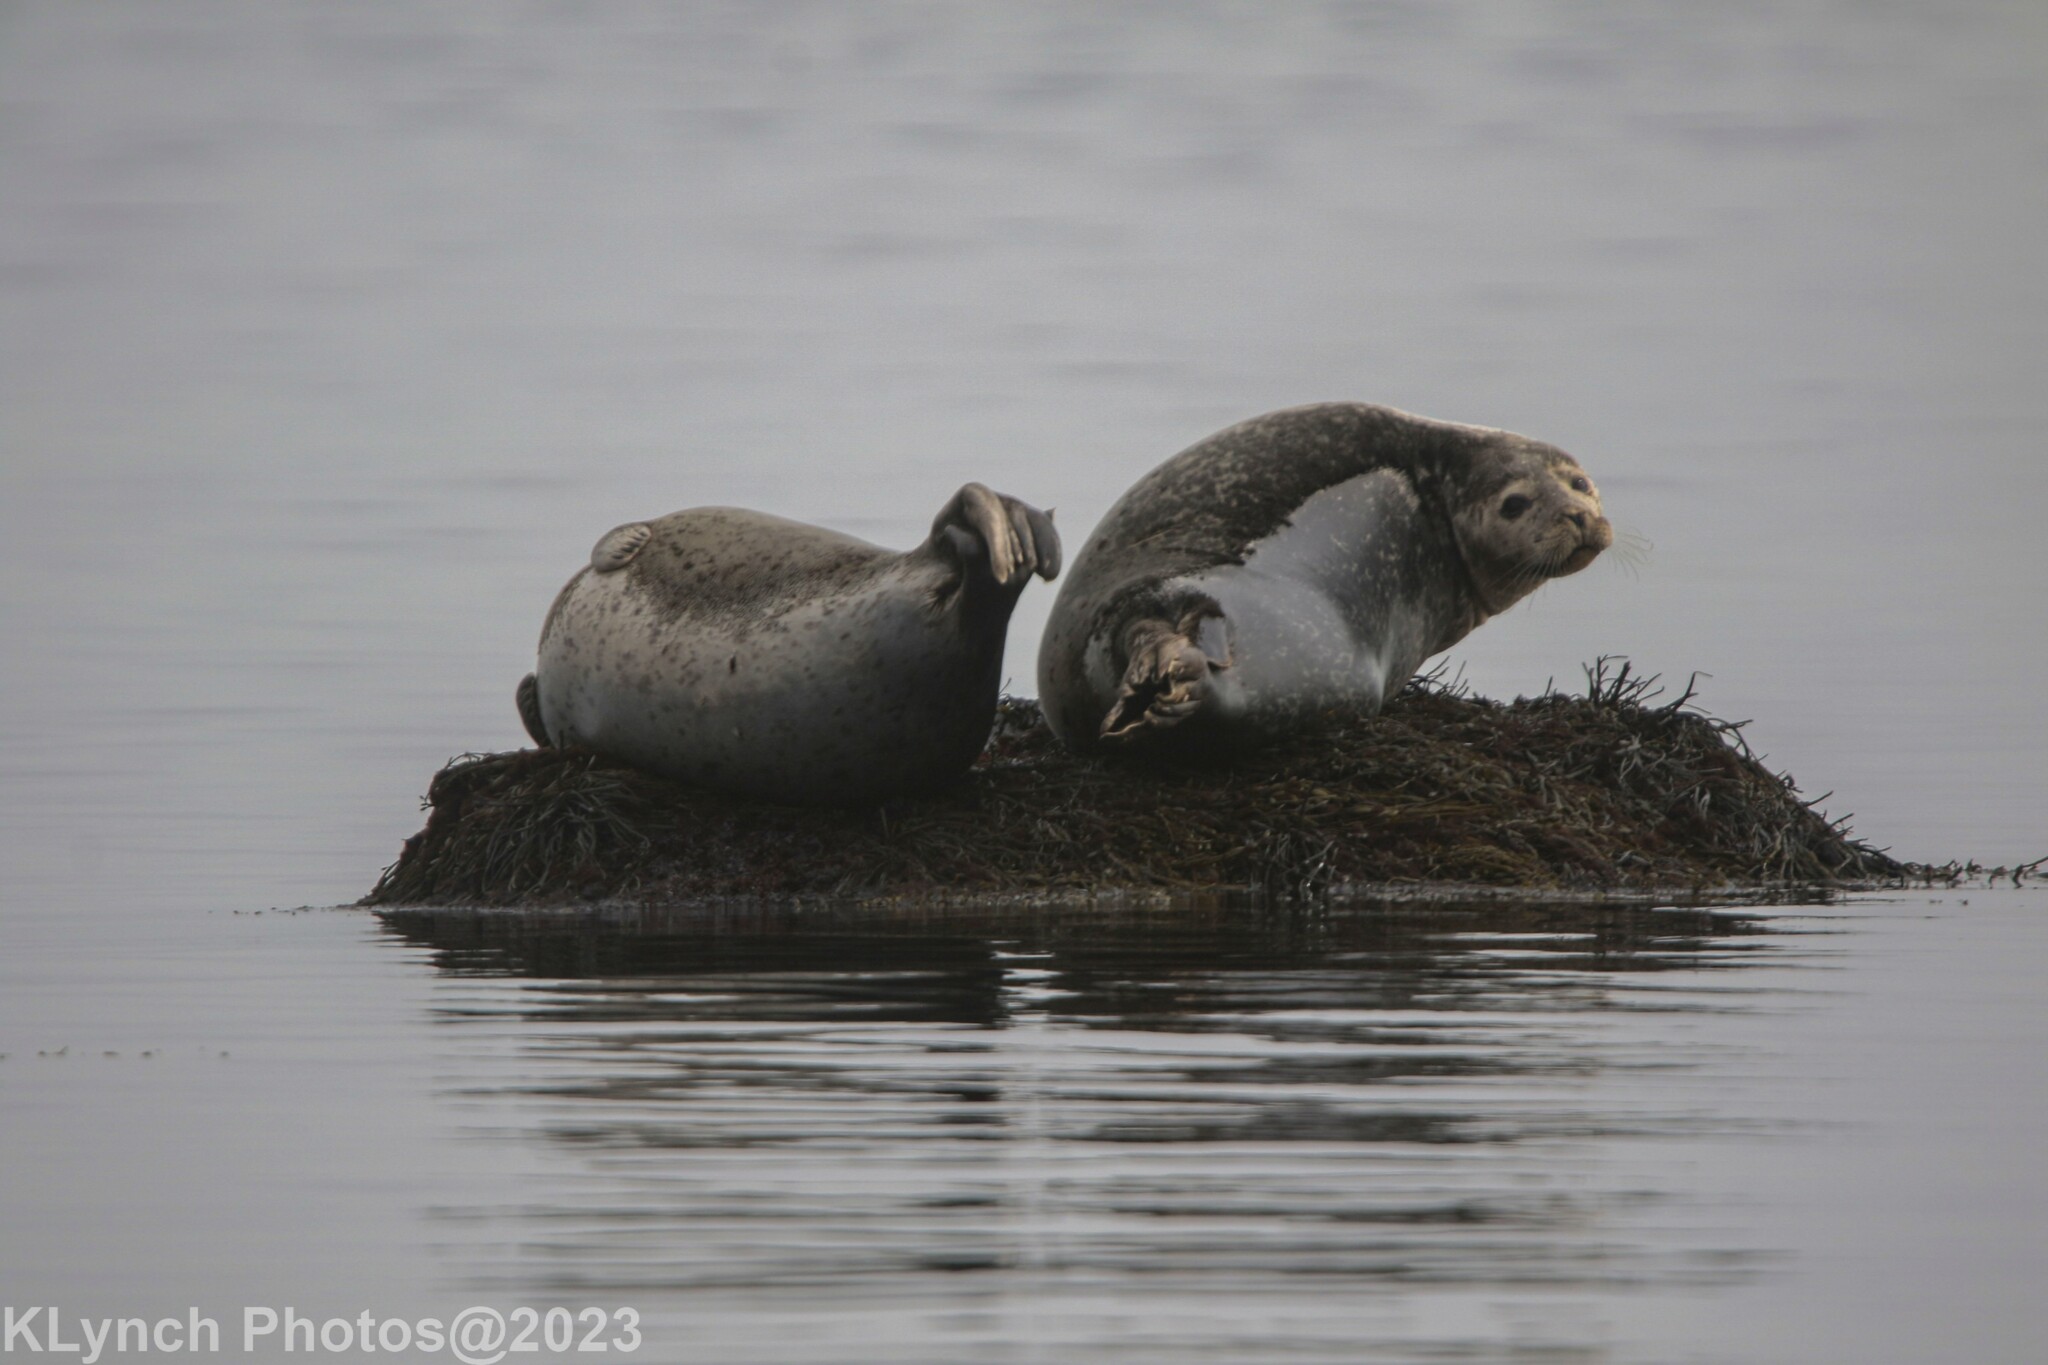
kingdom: Animalia
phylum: Chordata
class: Mammalia
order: Carnivora
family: Phocidae
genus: Phoca
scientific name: Phoca vitulina
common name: Harbor seal
